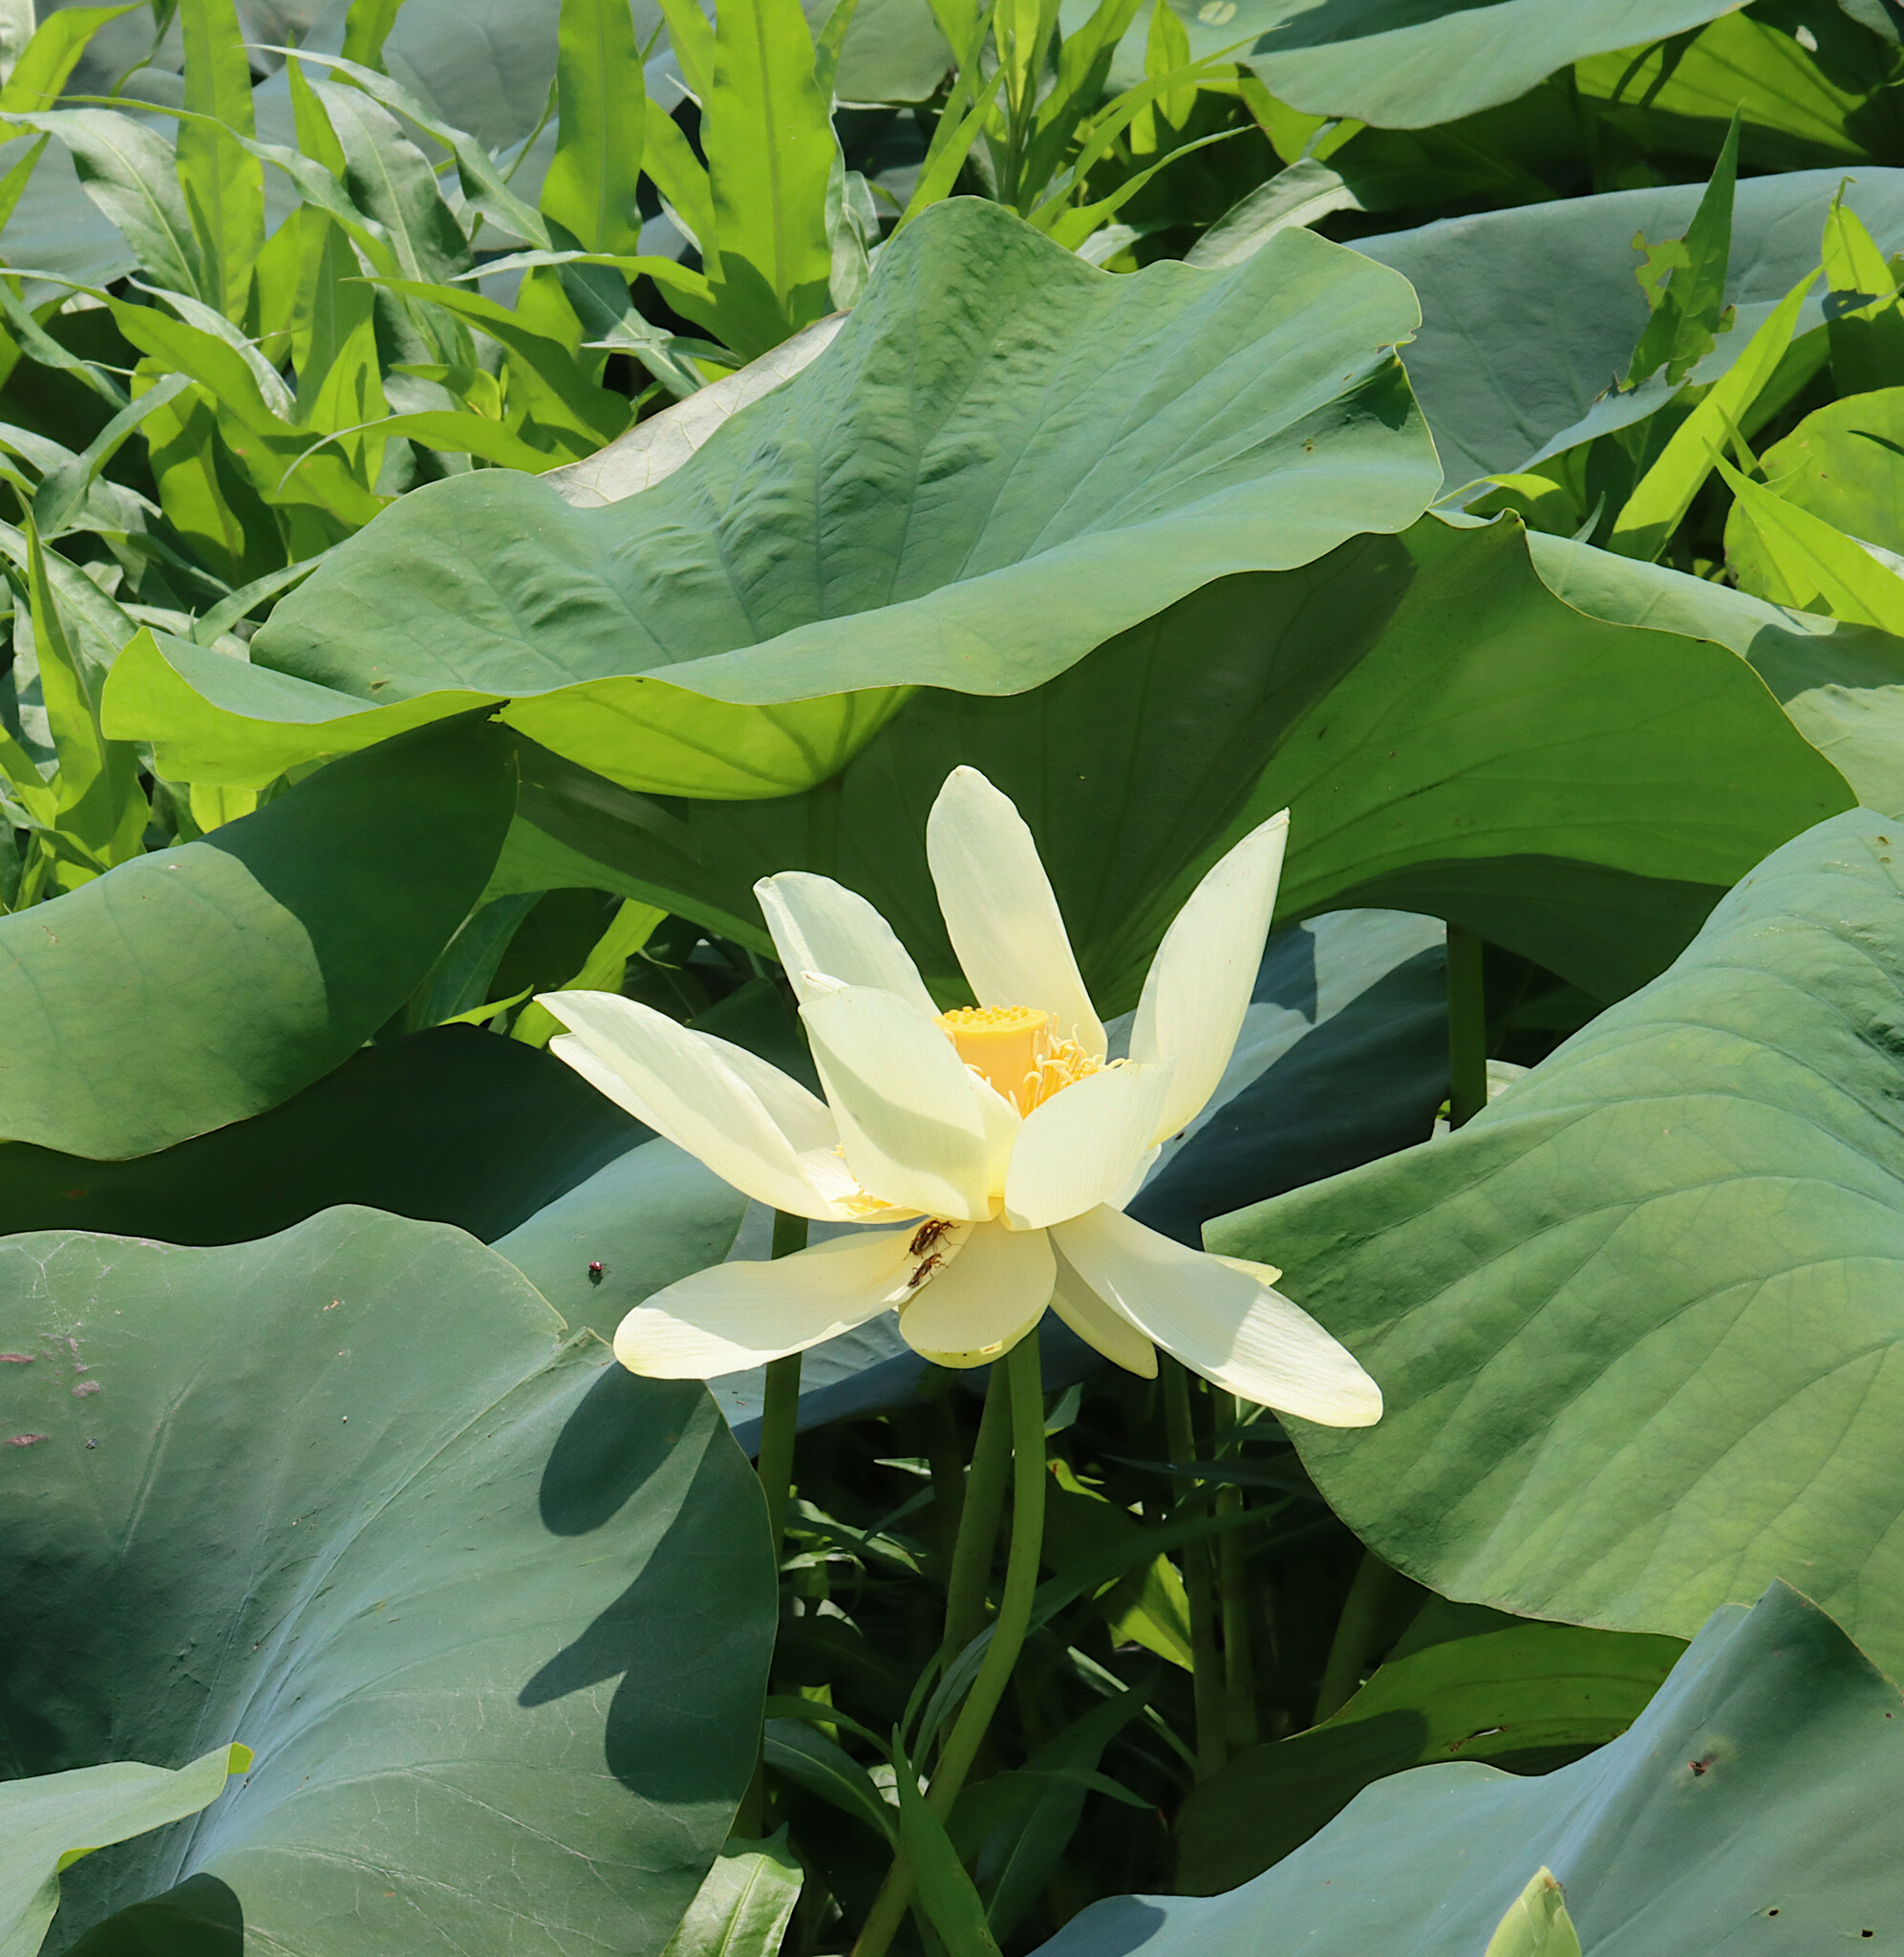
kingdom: Plantae
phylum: Tracheophyta
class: Magnoliopsida
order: Proteales
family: Nelumbonaceae
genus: Nelumbo
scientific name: Nelumbo lutea
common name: American lotus
